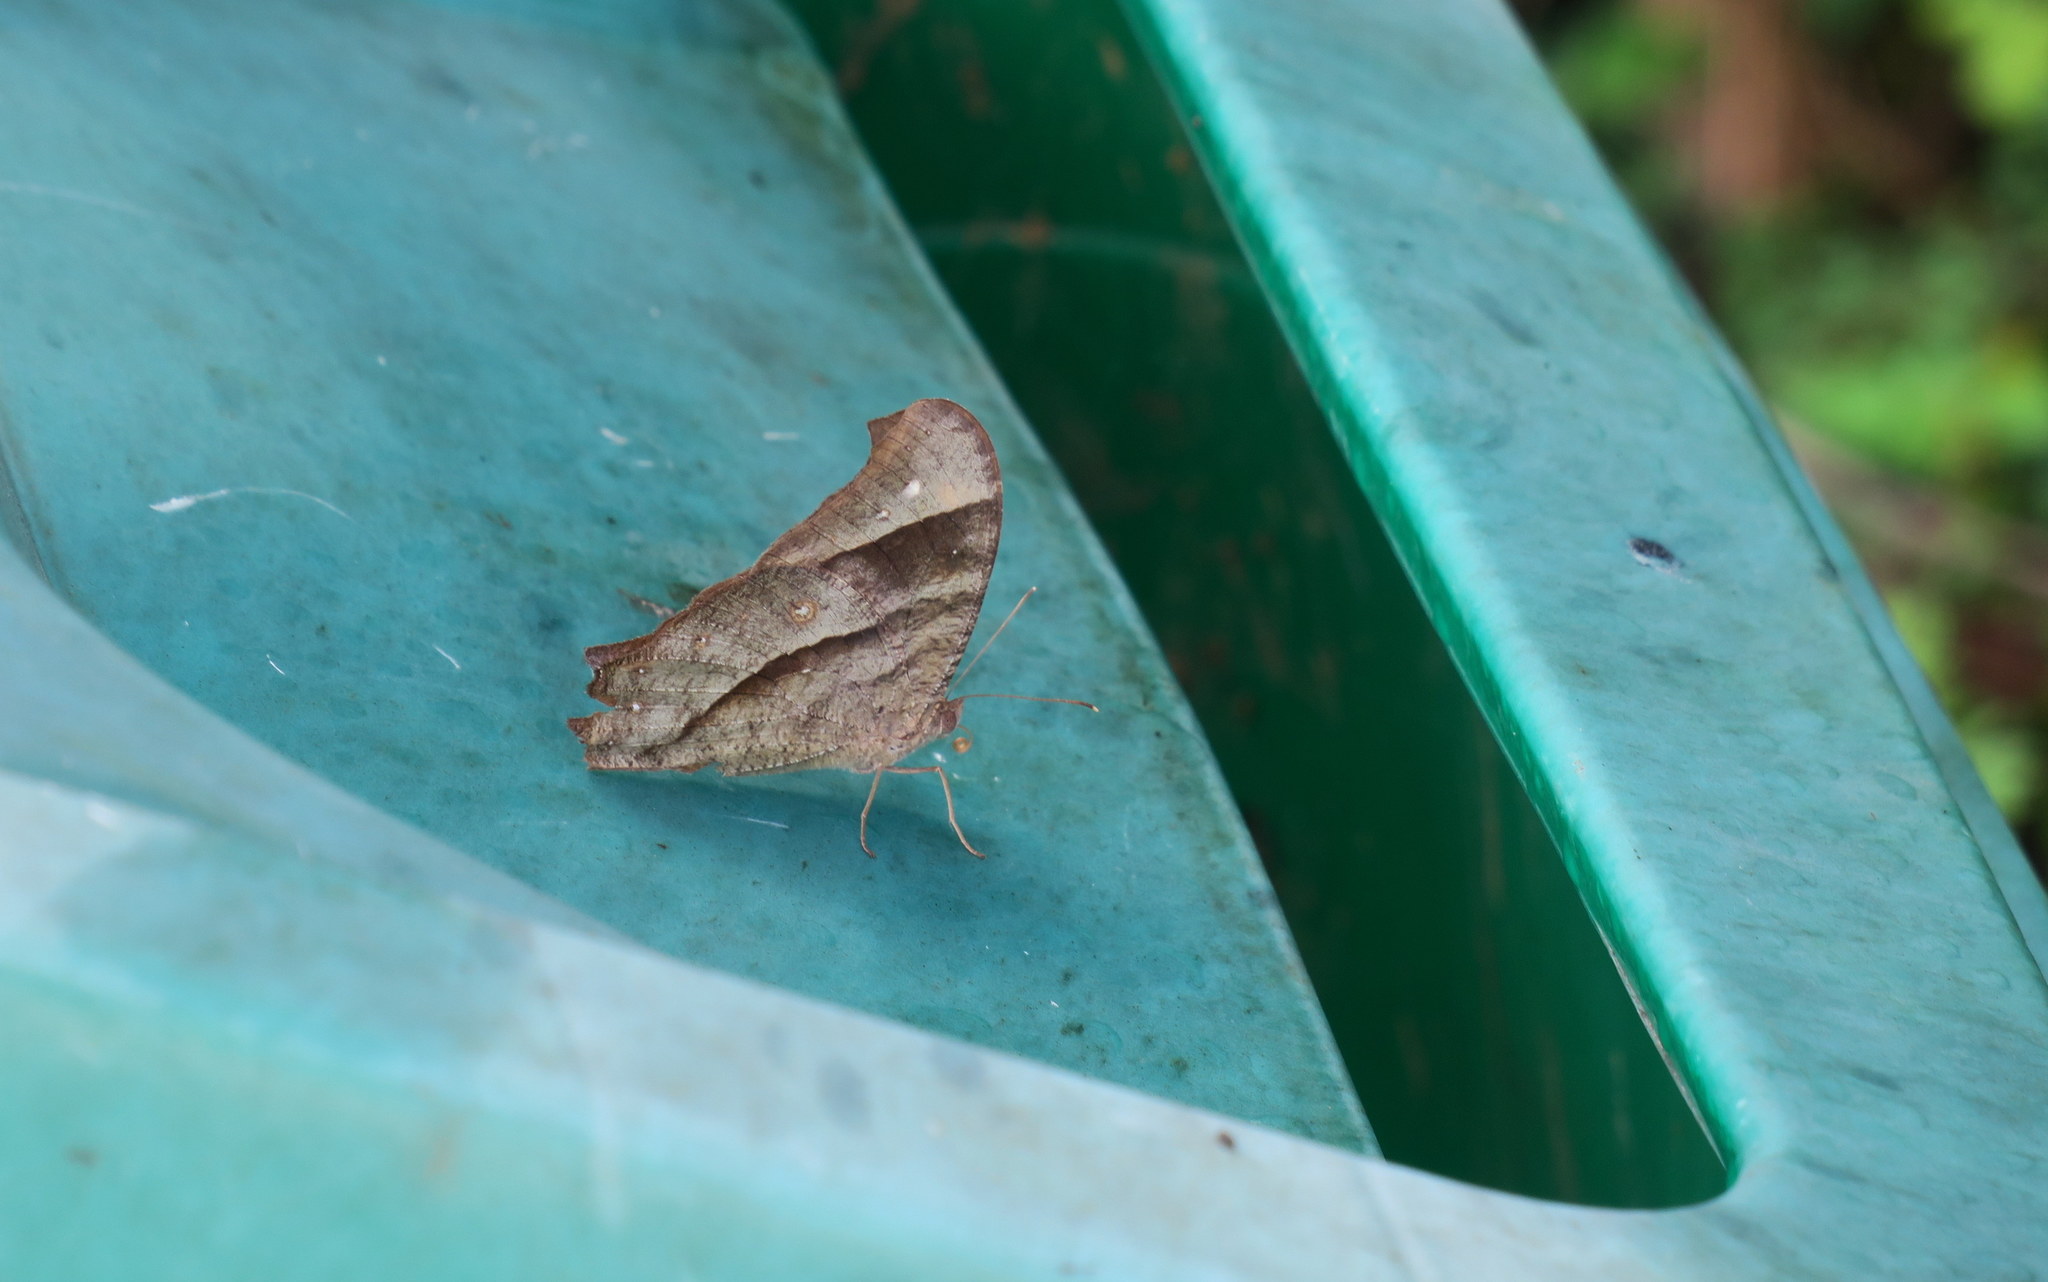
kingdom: Animalia
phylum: Arthropoda
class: Insecta
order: Lepidoptera
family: Nymphalidae
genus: Melanitis
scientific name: Melanitis phedima
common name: Dark evening brown
